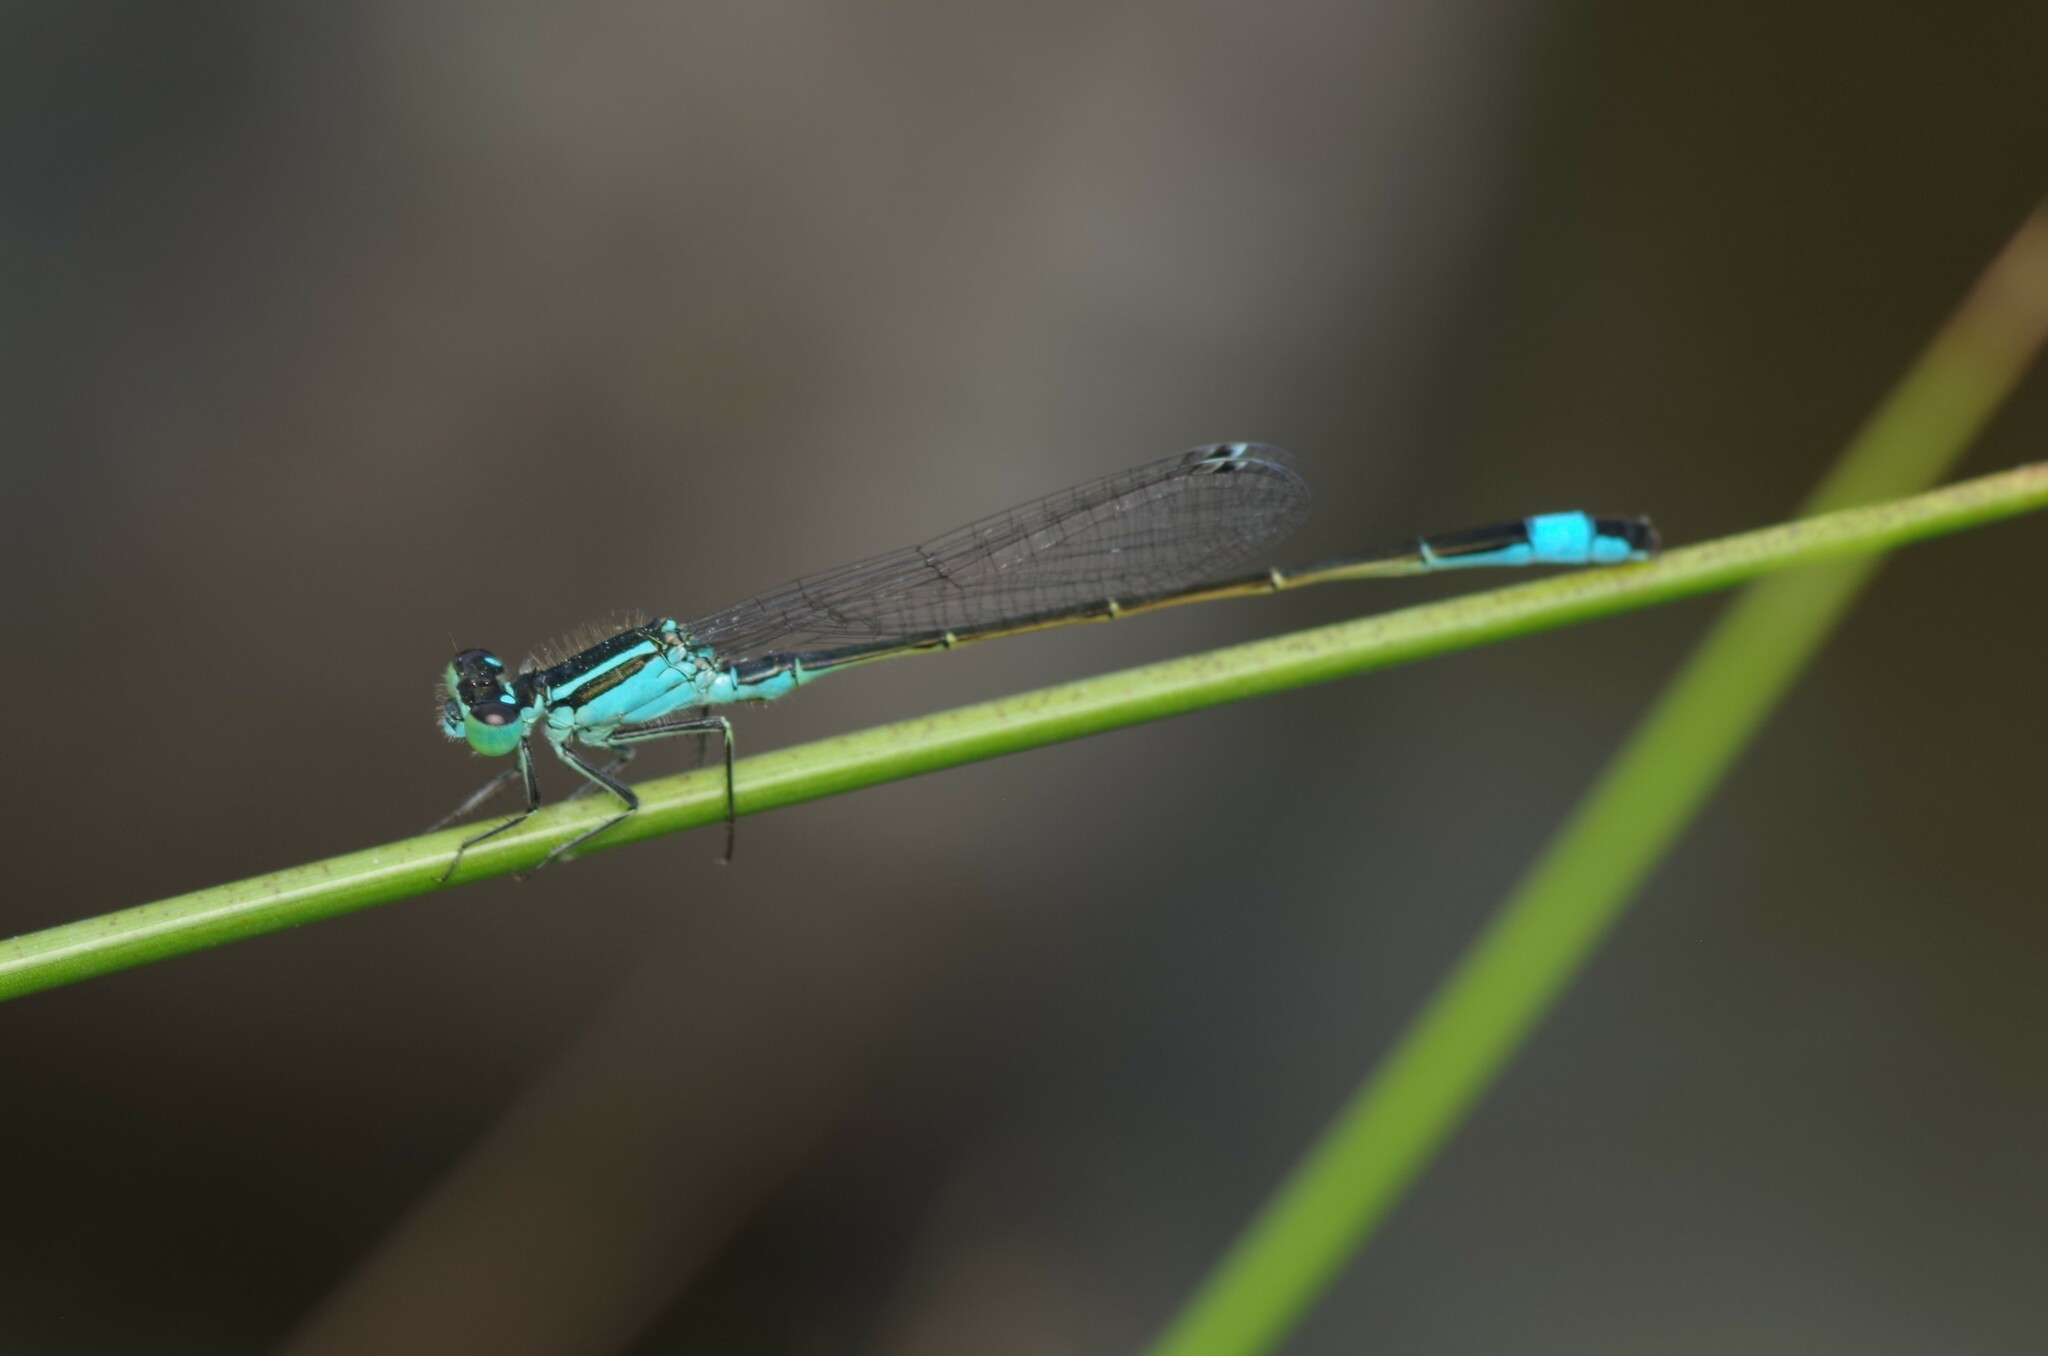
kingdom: Animalia
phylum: Arthropoda
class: Insecta
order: Odonata
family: Coenagrionidae
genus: Ischnura
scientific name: Ischnura elegans
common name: Blue-tailed damselfly
